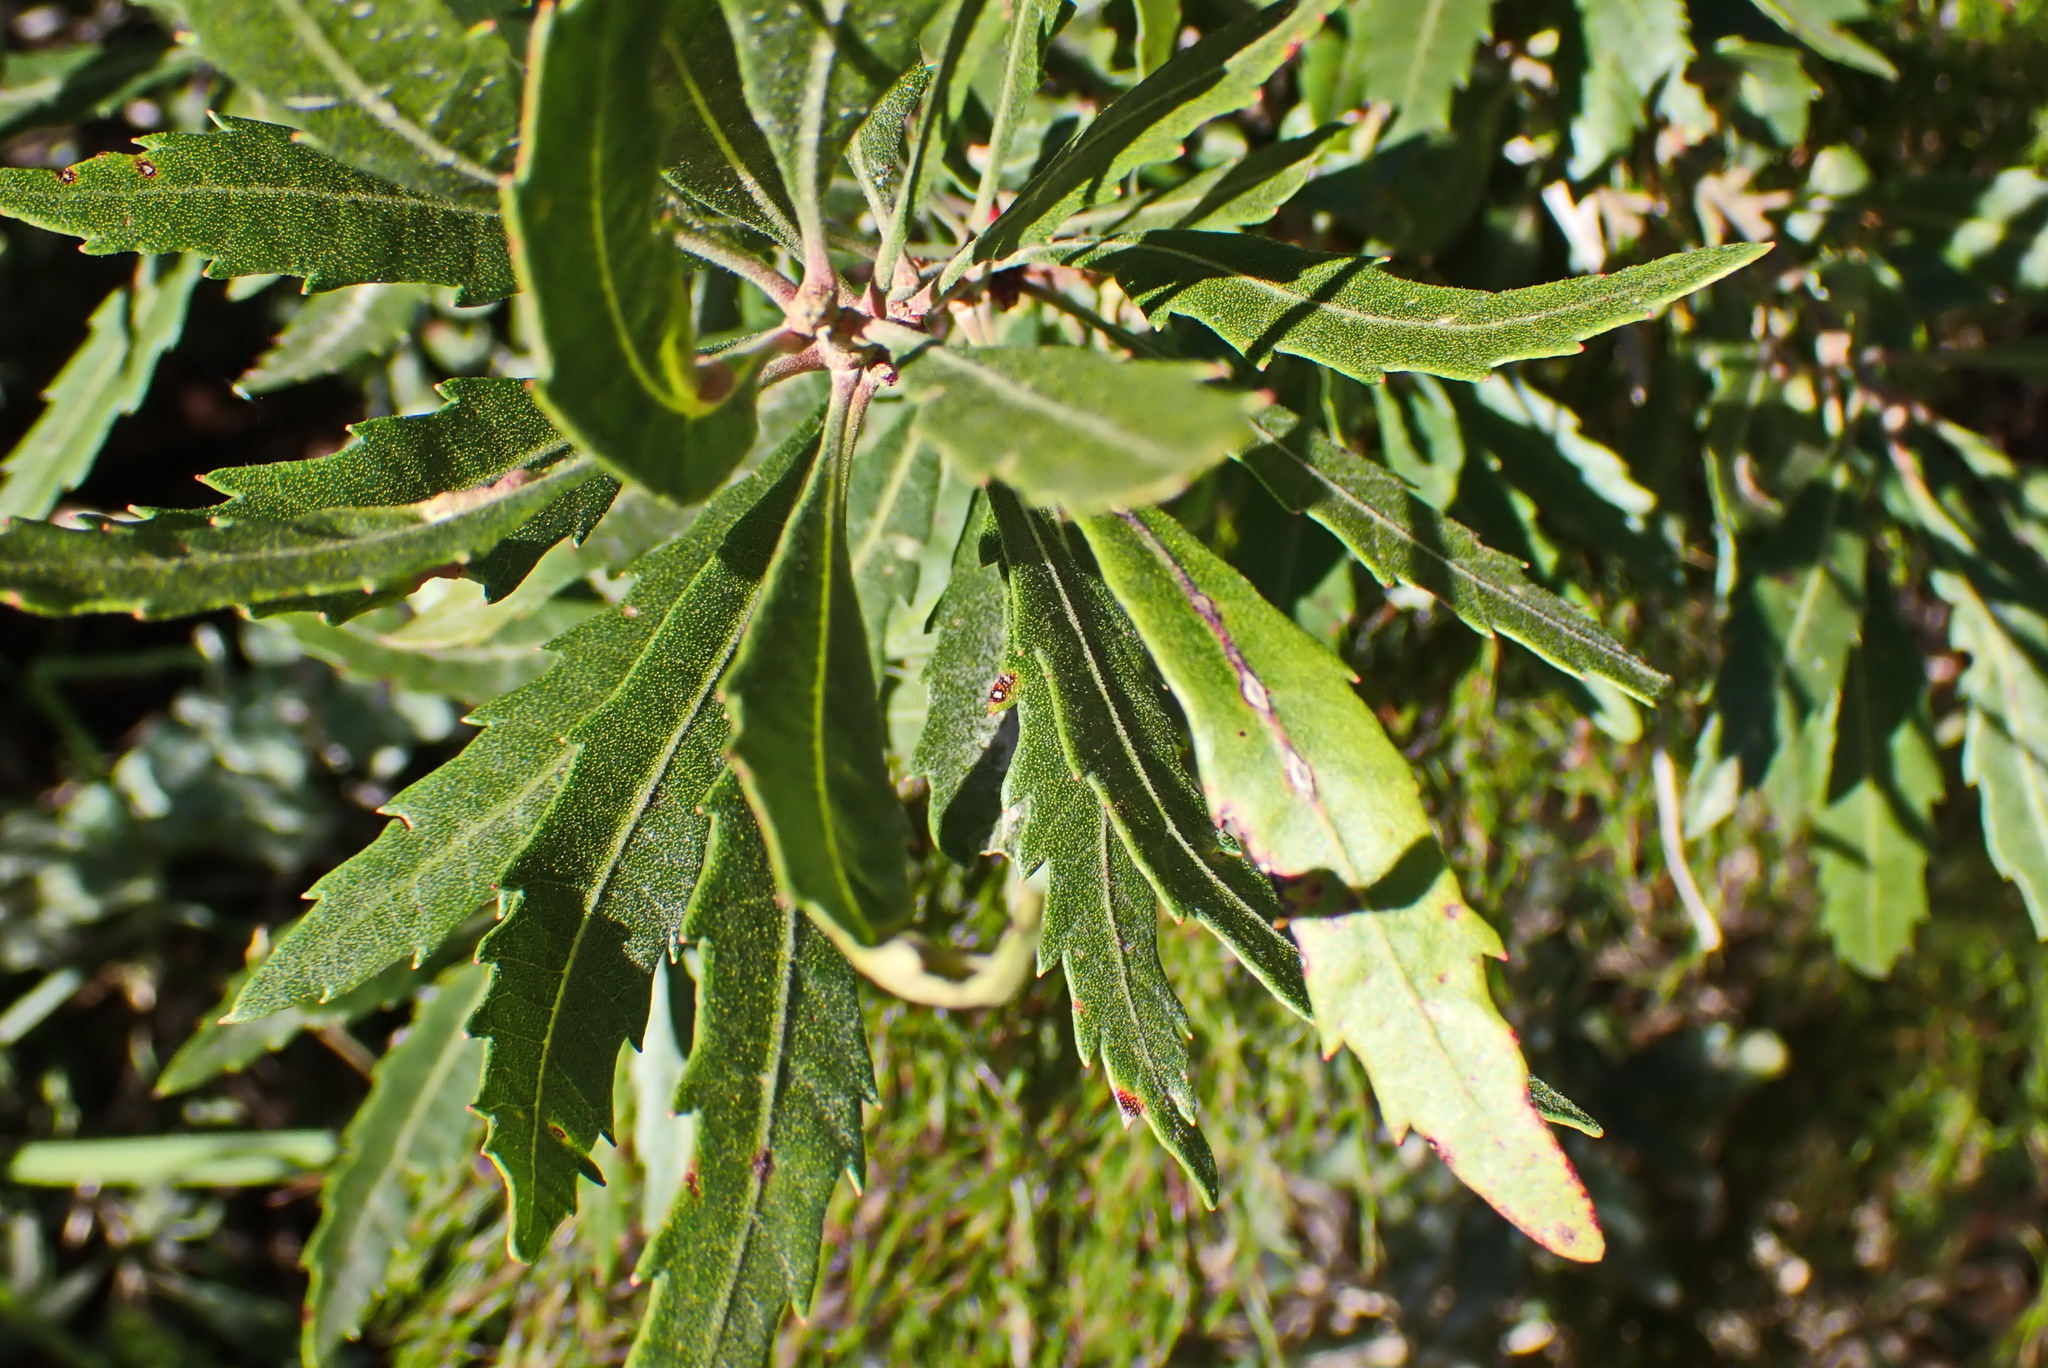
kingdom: Plantae
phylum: Tracheophyta
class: Magnoliopsida
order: Fagales
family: Myricaceae
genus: Morella
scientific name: Morella serrata
